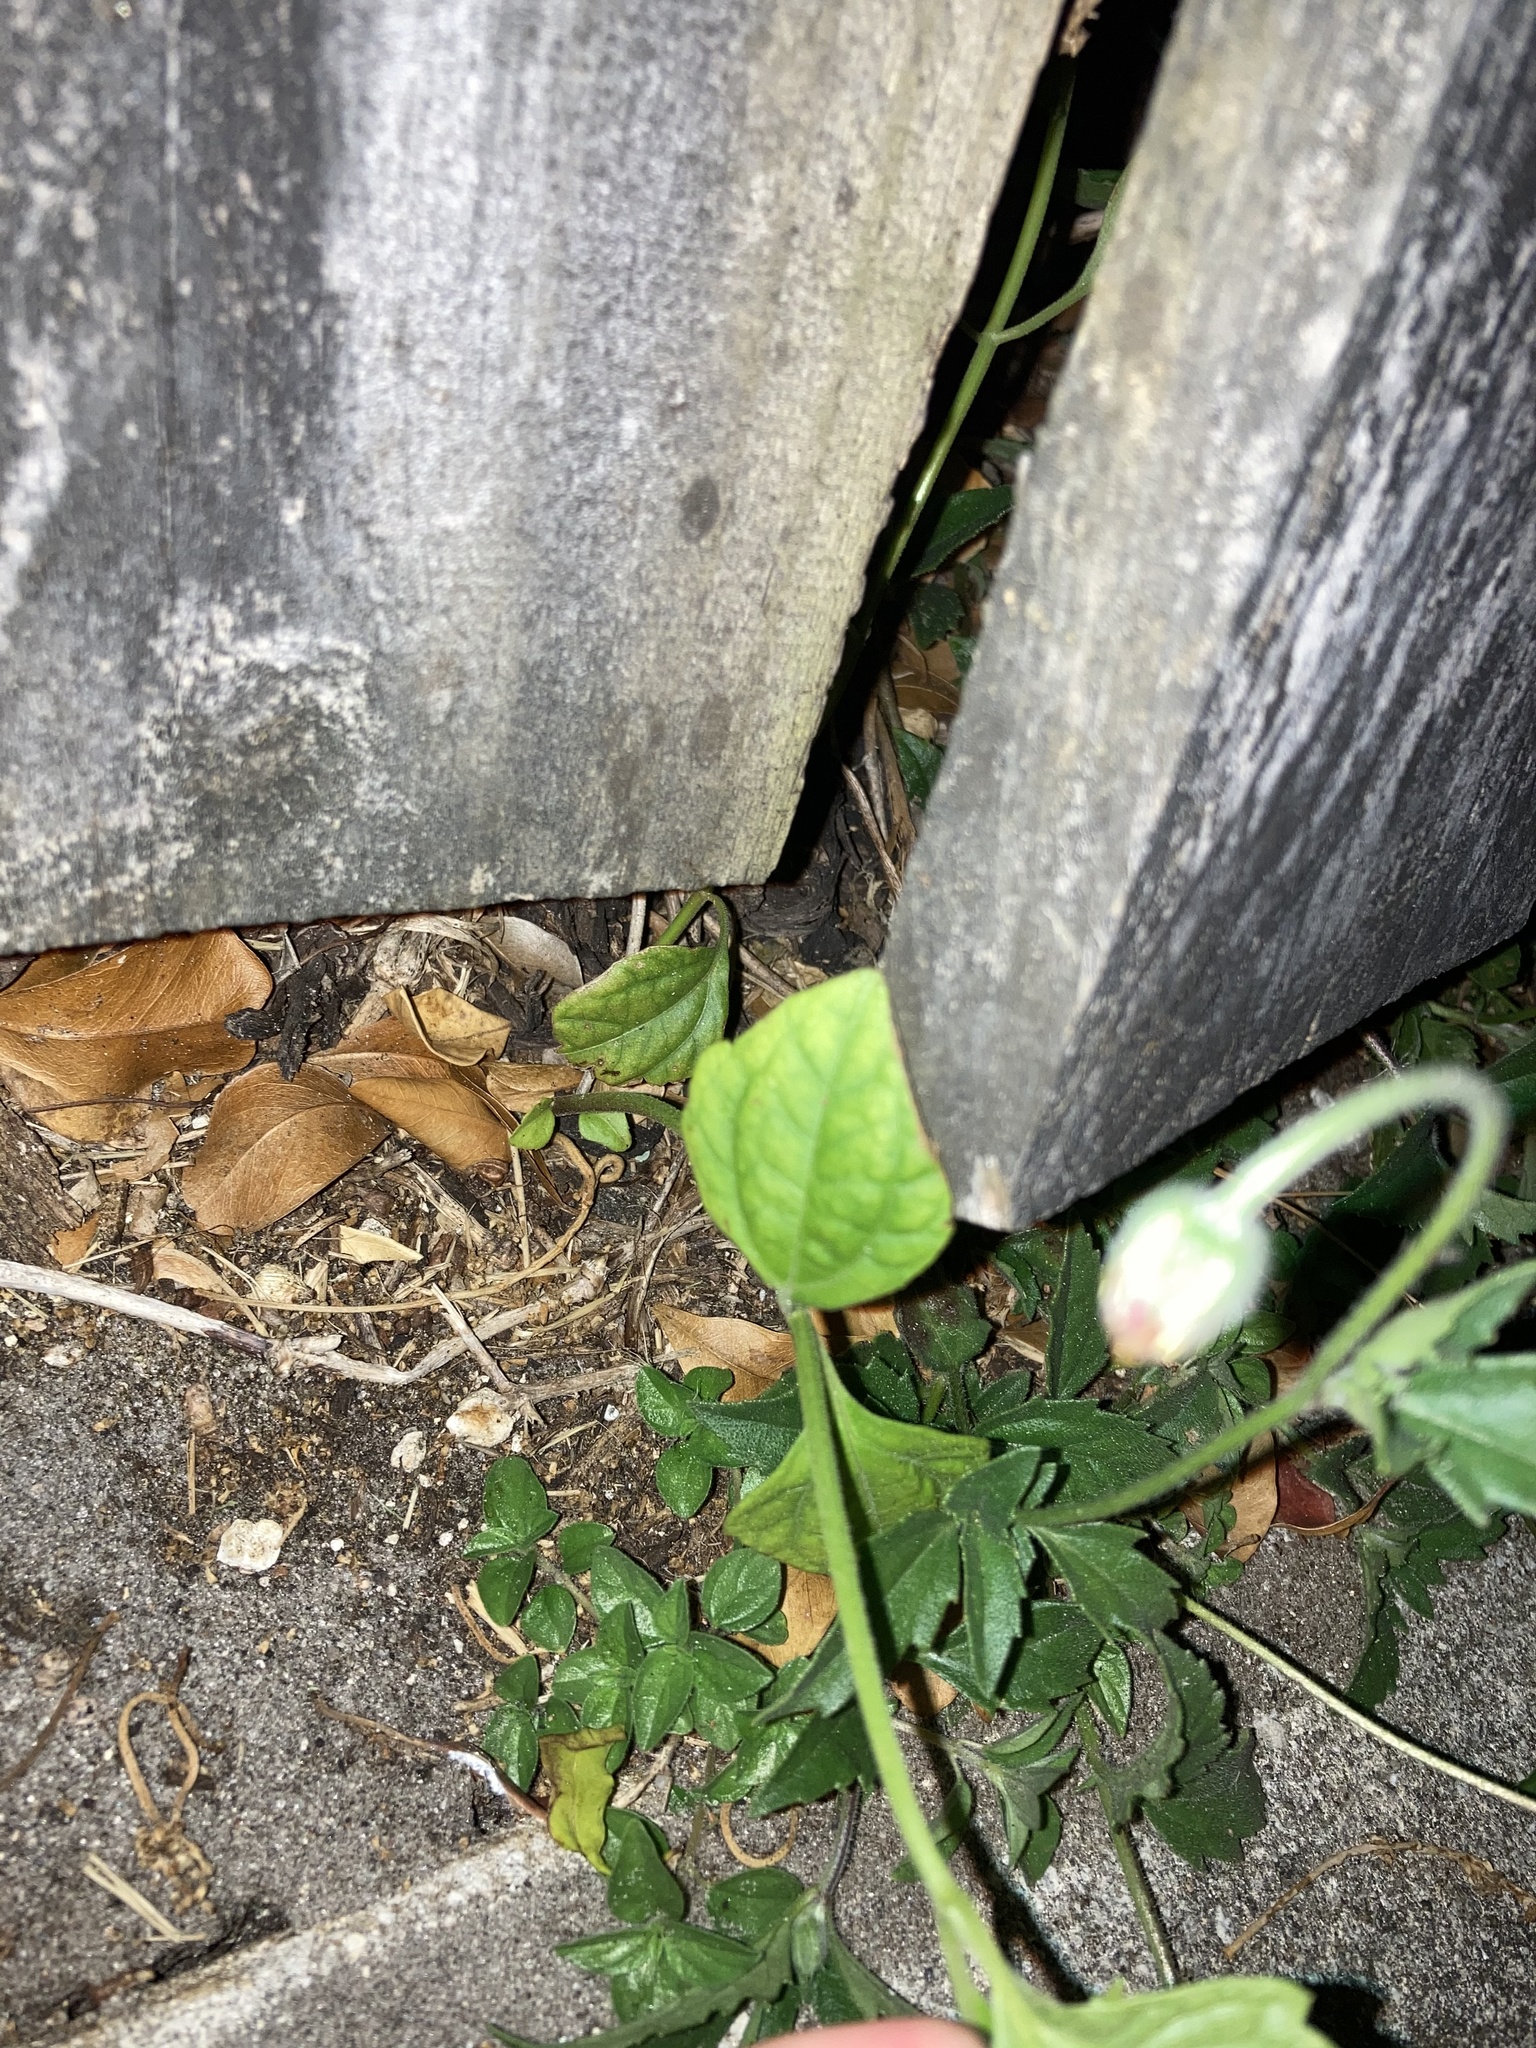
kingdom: Plantae
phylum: Tracheophyta
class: Magnoliopsida
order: Asterales
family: Asteraceae
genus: Chromolaena
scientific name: Chromolaena odorata
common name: Siamweed
